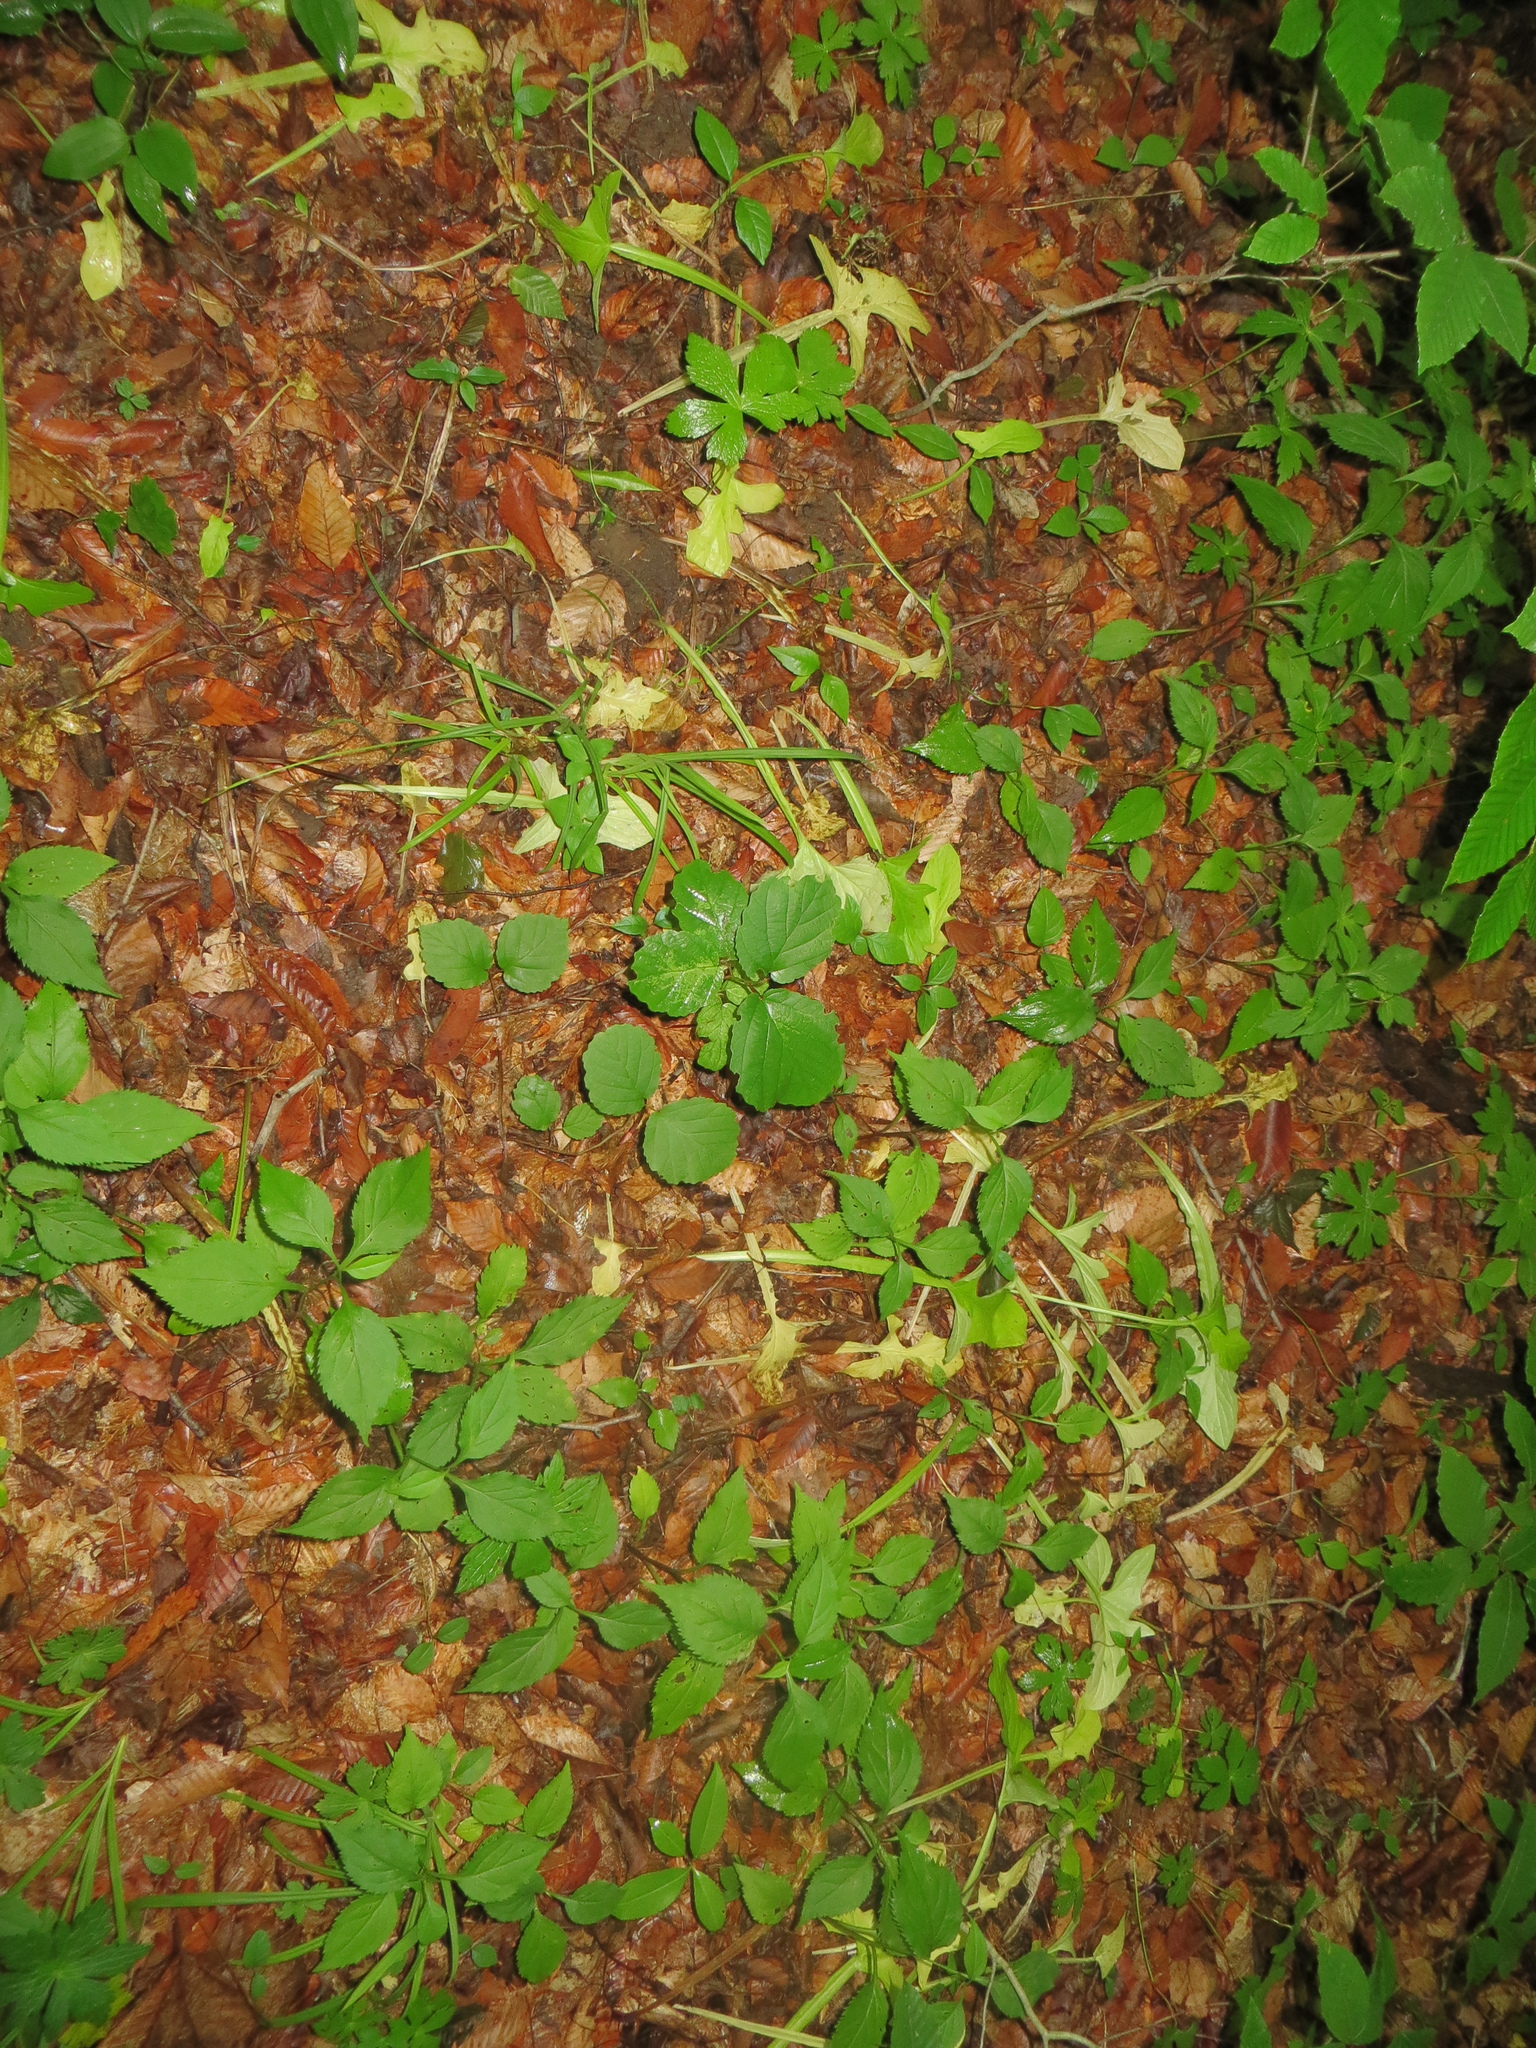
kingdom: Plantae
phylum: Tracheophyta
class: Magnoliopsida
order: Asterales
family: Asteraceae
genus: Nabalus
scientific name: Nabalus crepidineus
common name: Nodding rattlesnakeroot
